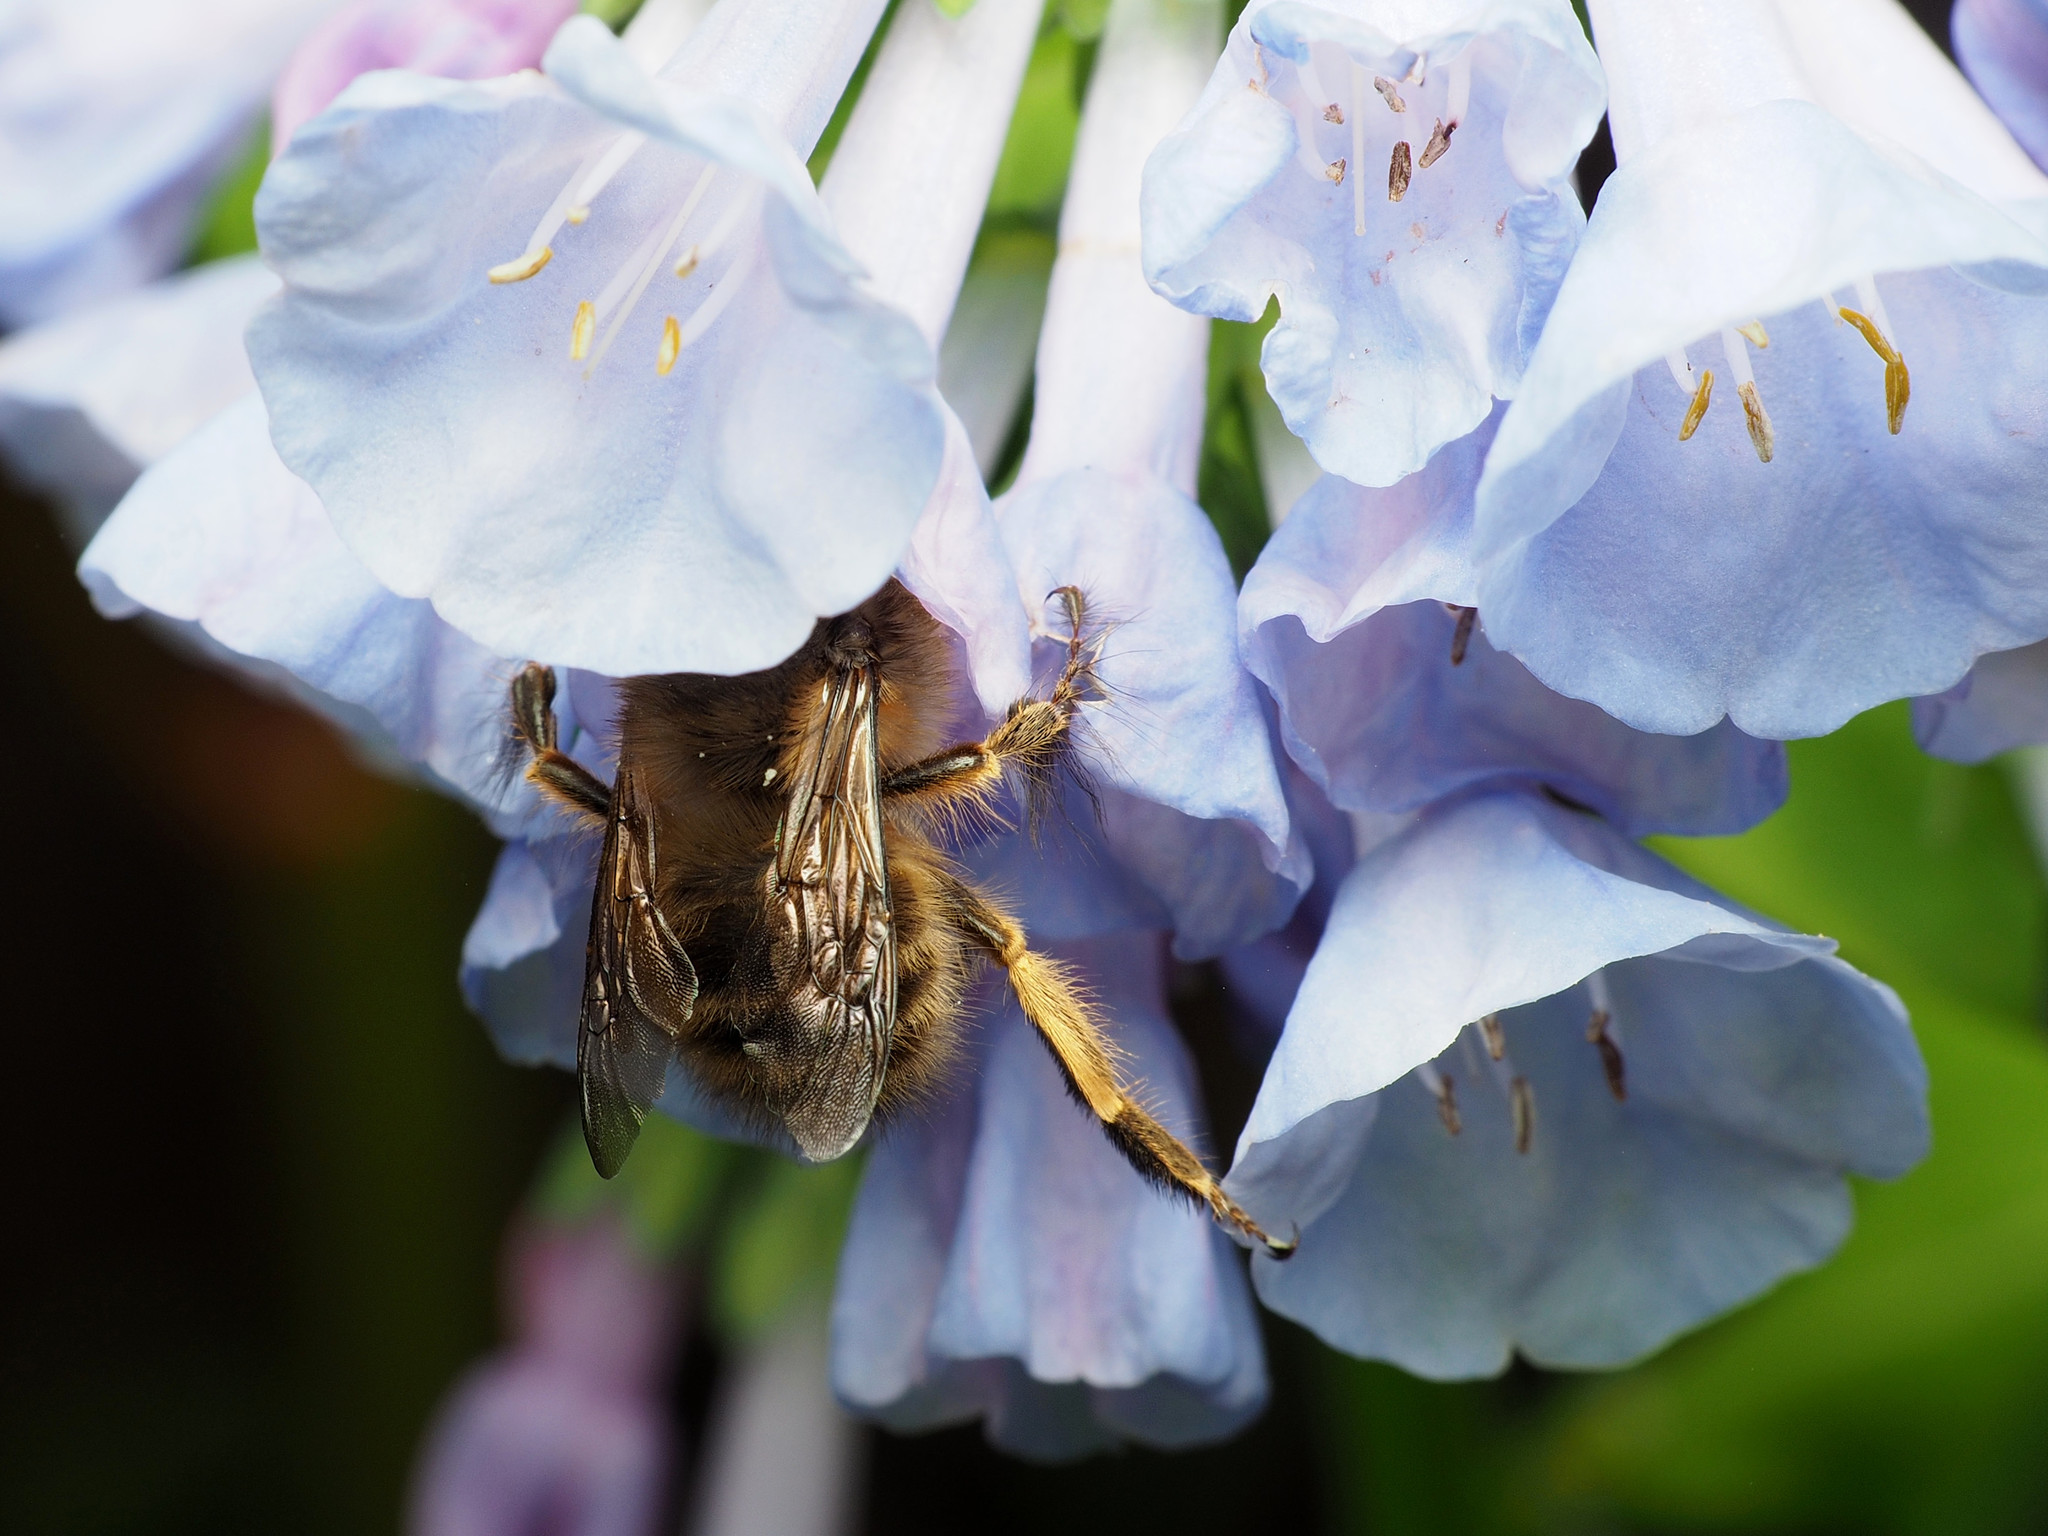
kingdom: Animalia
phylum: Arthropoda
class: Insecta
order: Hymenoptera
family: Apidae
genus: Anthophora
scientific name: Anthophora villosula
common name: Asian shaggy digger
